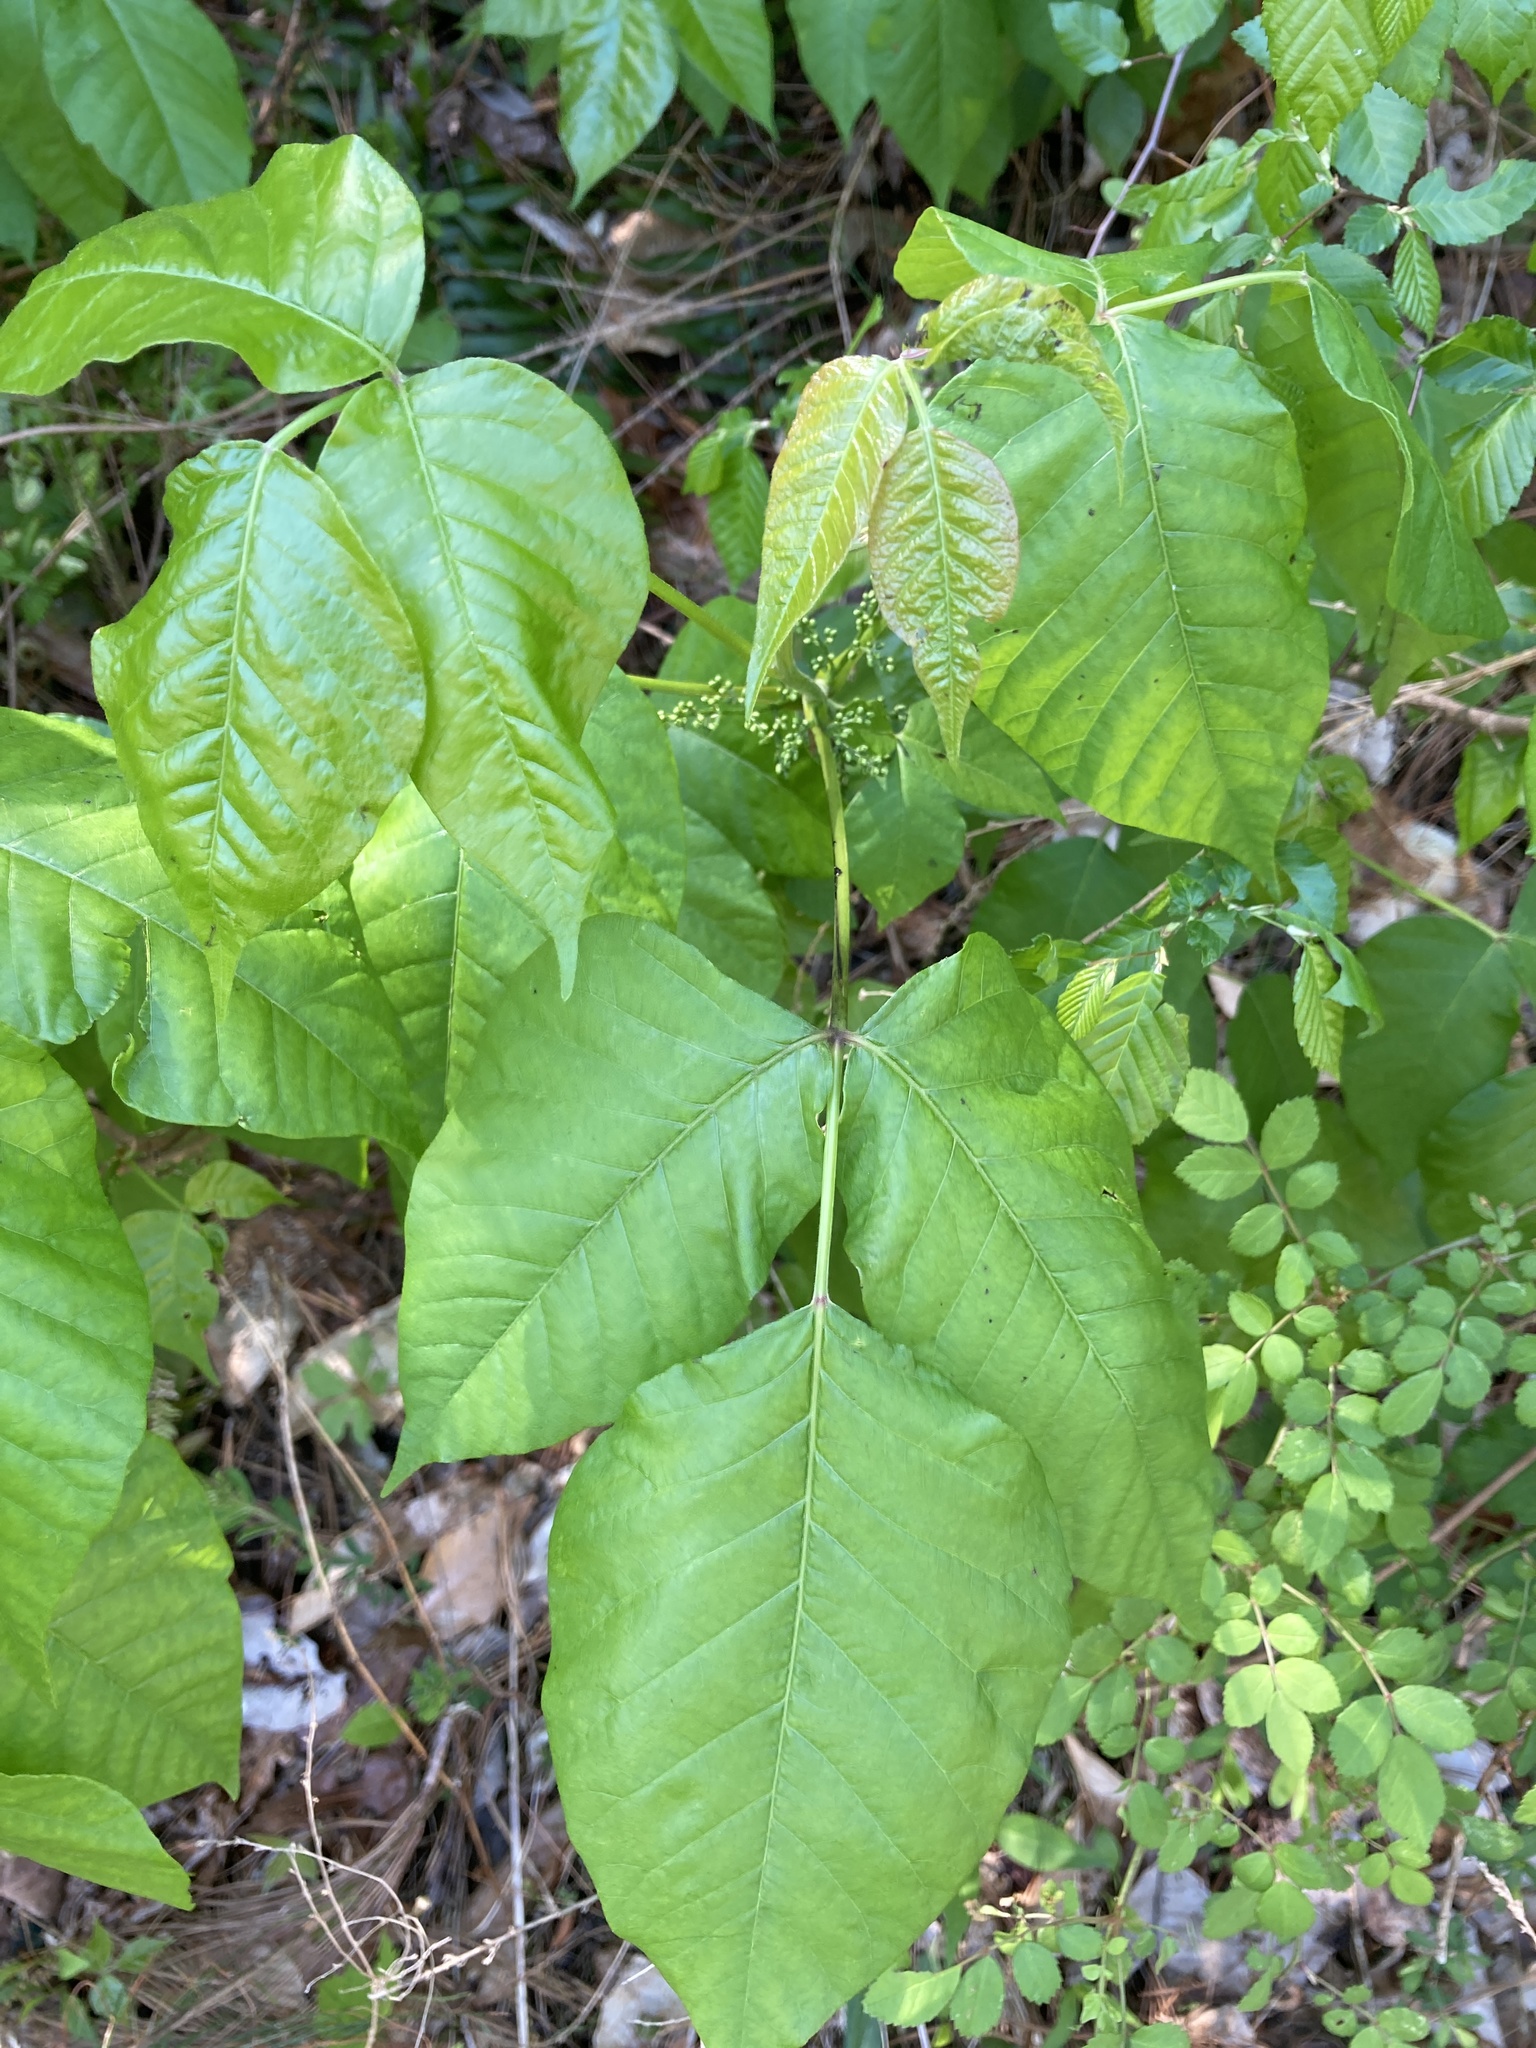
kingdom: Plantae
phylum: Tracheophyta
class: Magnoliopsida
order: Sapindales
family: Anacardiaceae
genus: Toxicodendron
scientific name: Toxicodendron radicans
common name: Poison ivy
